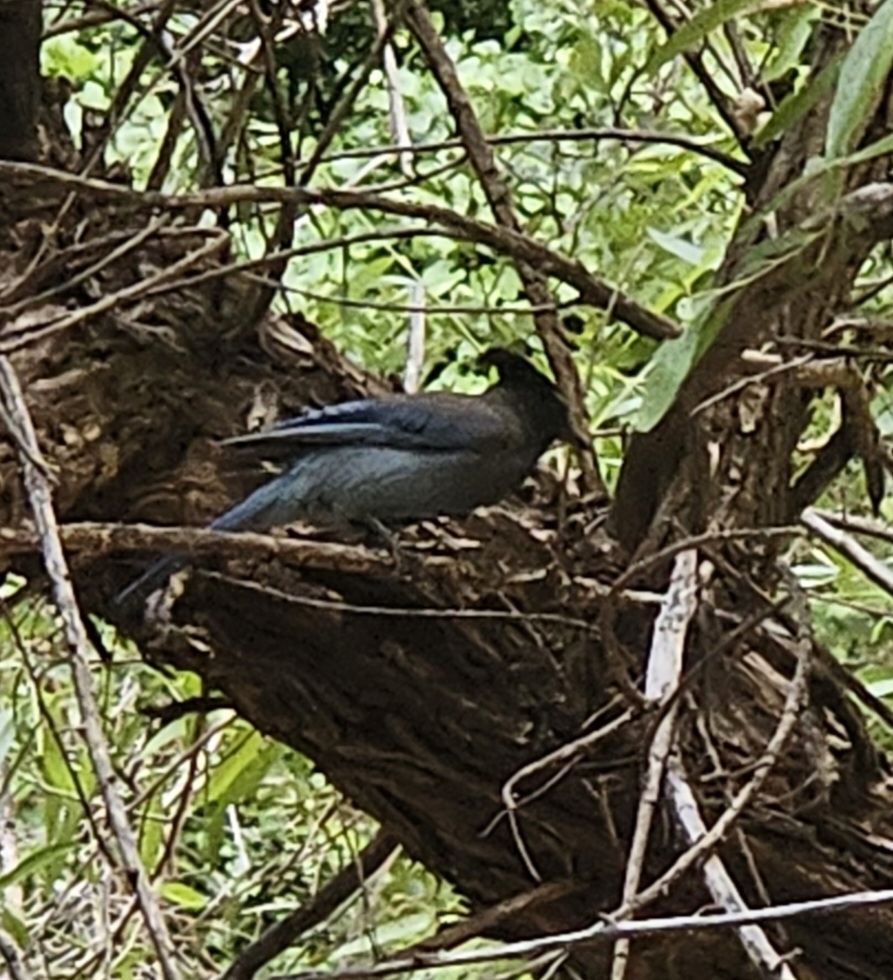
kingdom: Animalia
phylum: Chordata
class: Aves
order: Passeriformes
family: Corvidae
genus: Cyanocitta
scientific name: Cyanocitta stelleri
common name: Steller's jay
